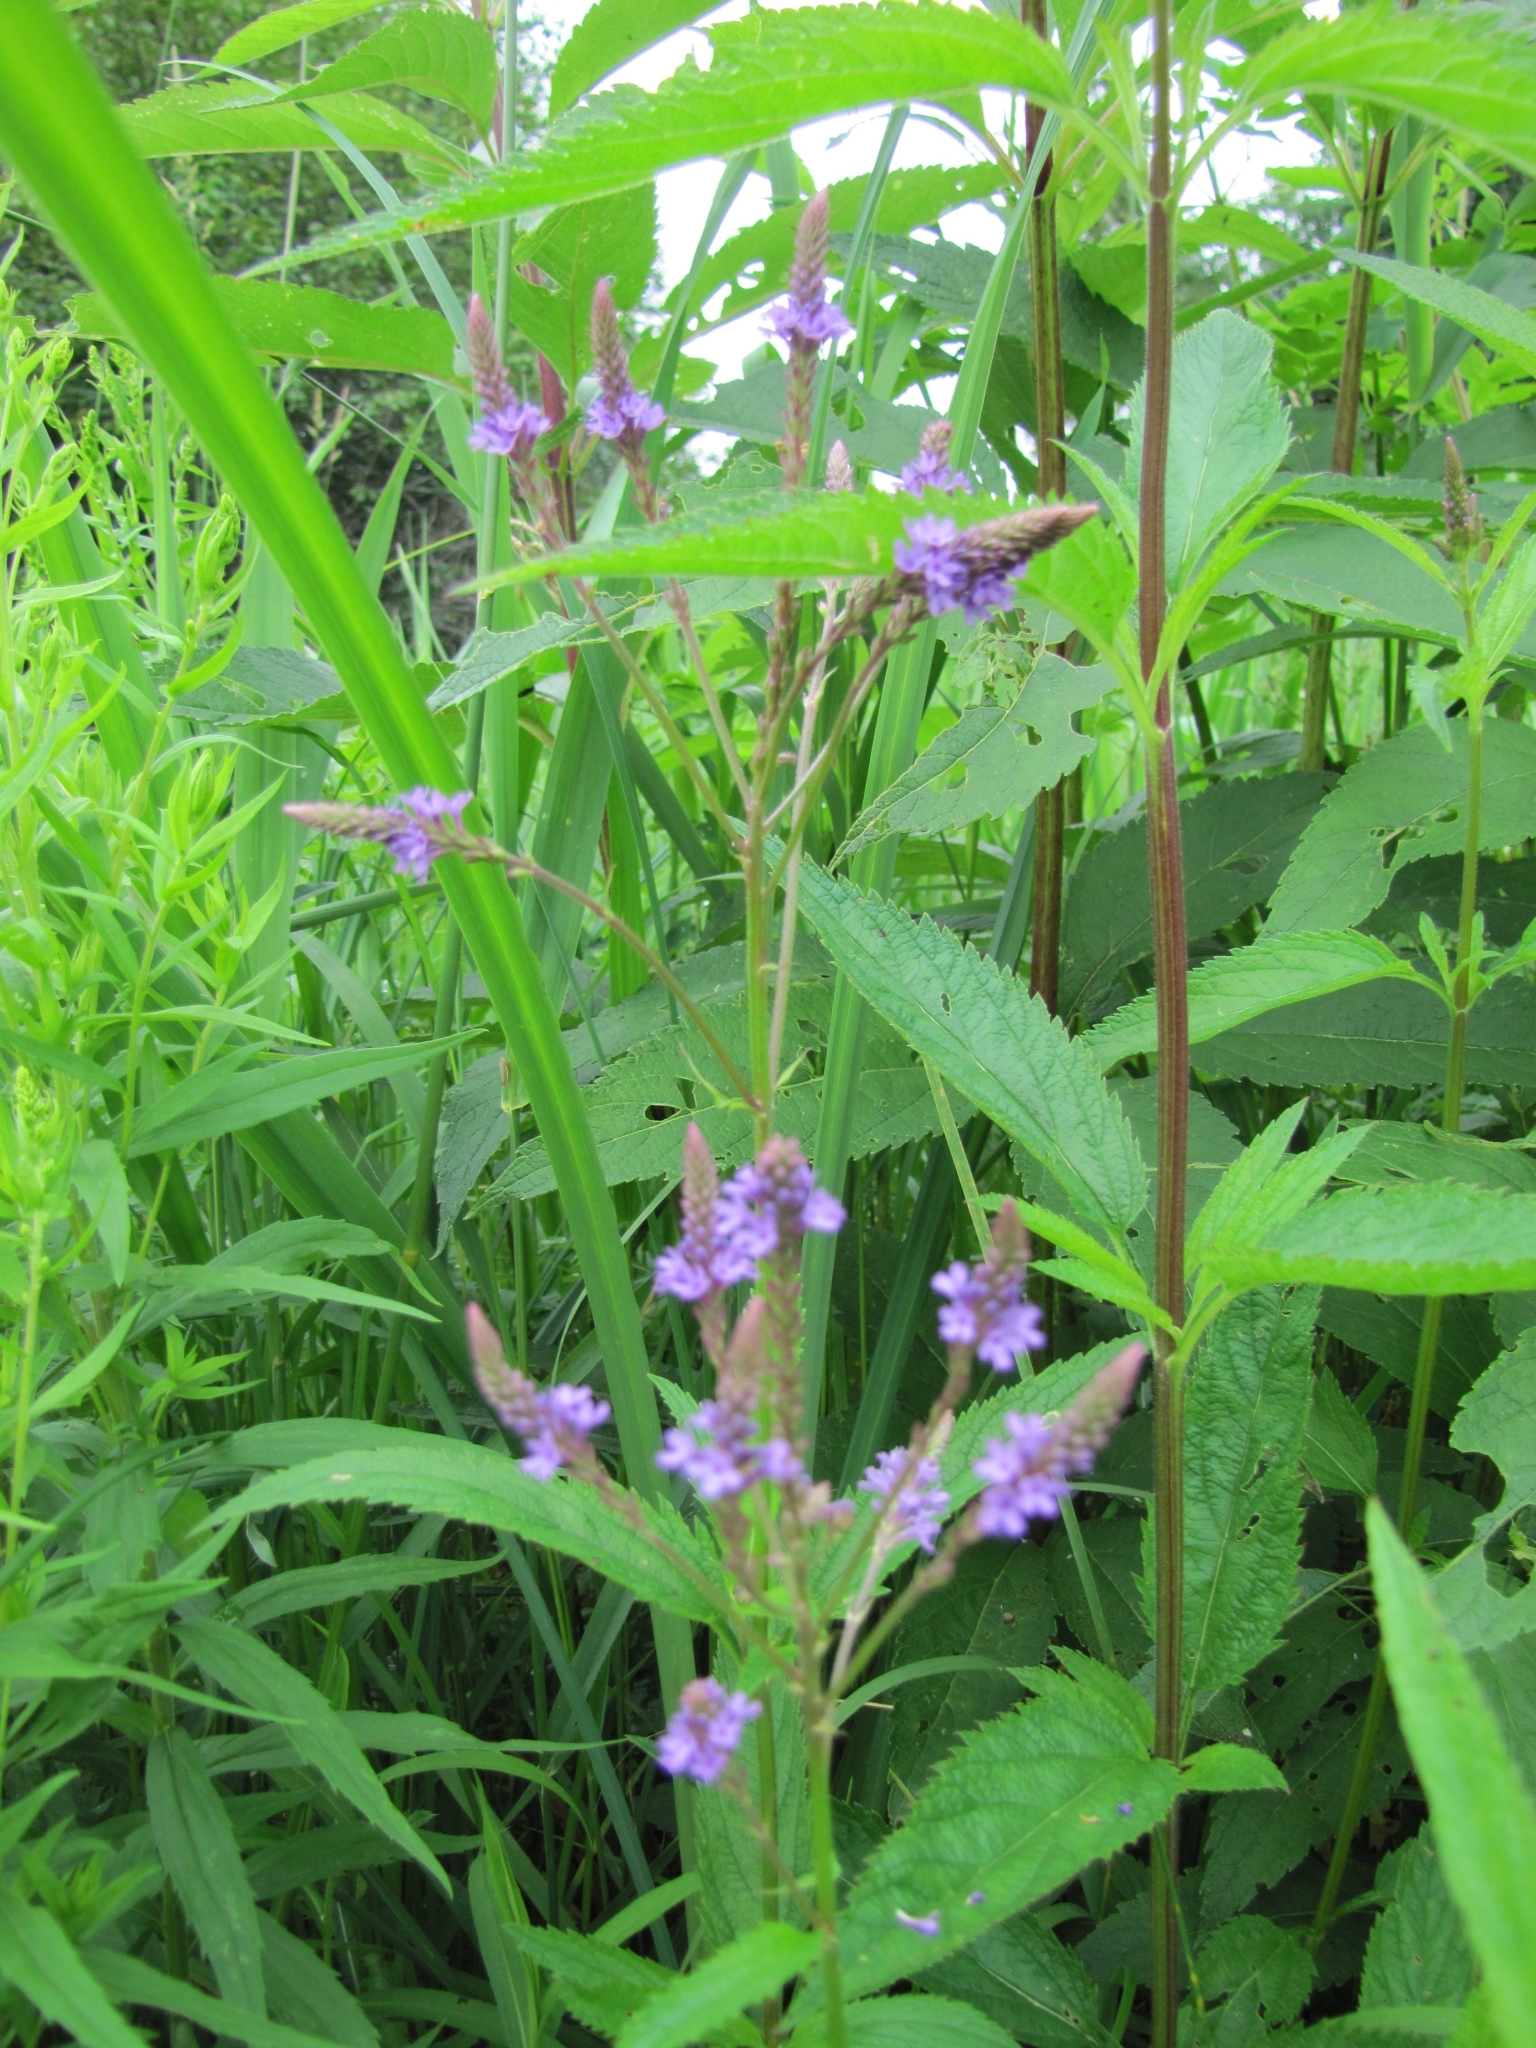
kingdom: Plantae
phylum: Tracheophyta
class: Magnoliopsida
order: Lamiales
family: Verbenaceae
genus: Verbena
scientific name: Verbena hastata
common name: American blue vervain
